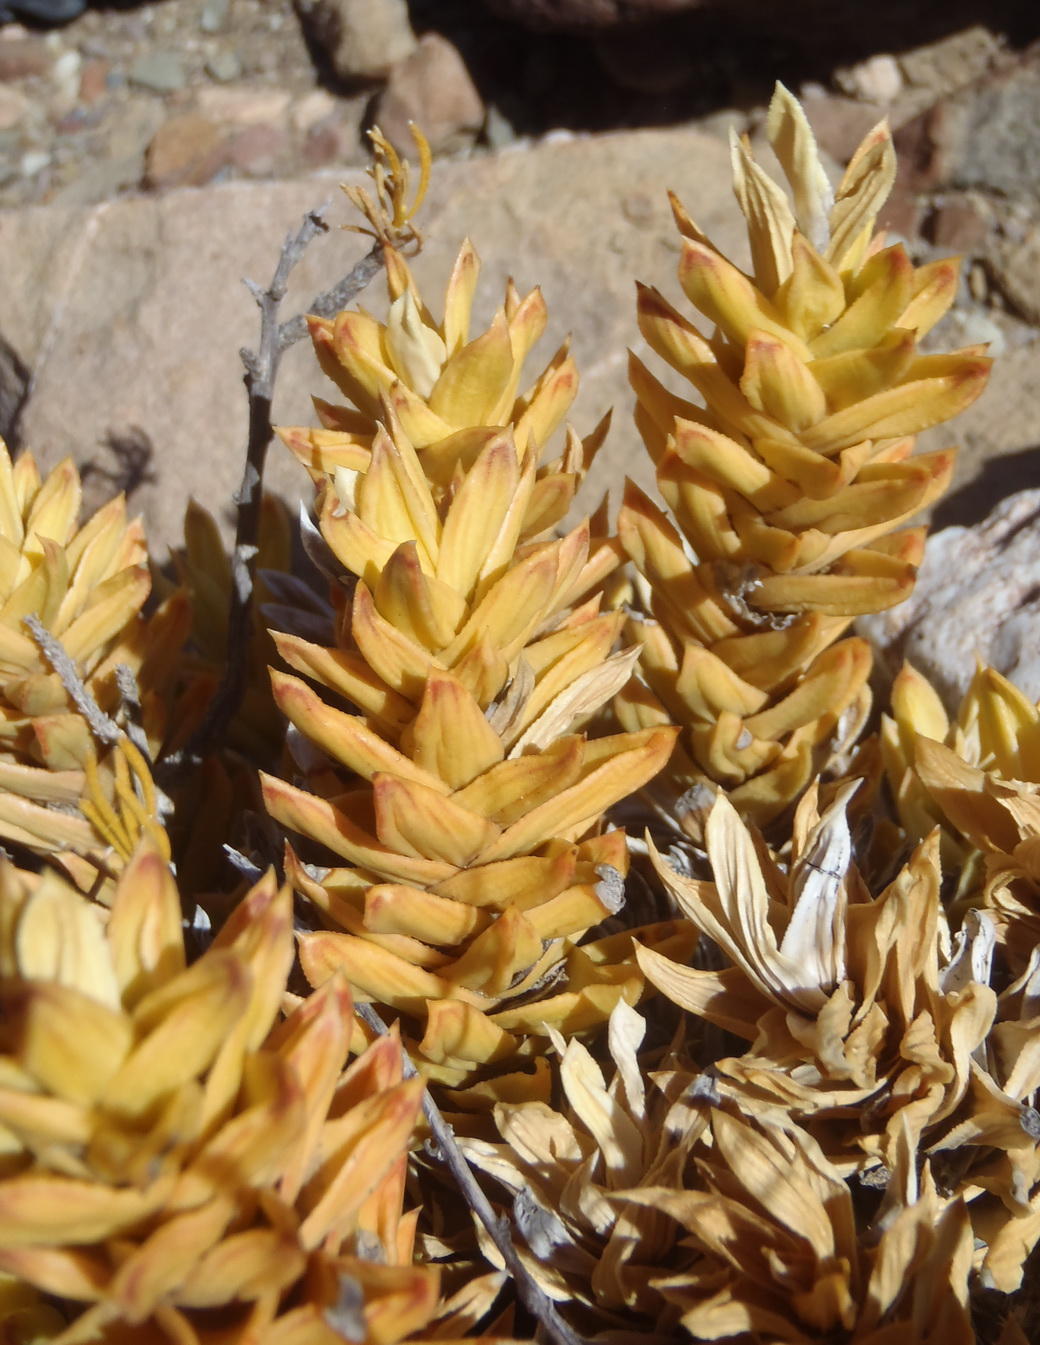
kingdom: Plantae
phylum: Tracheophyta
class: Liliopsida
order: Asparagales
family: Asphodelaceae
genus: Astroloba
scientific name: Astroloba pentagona
